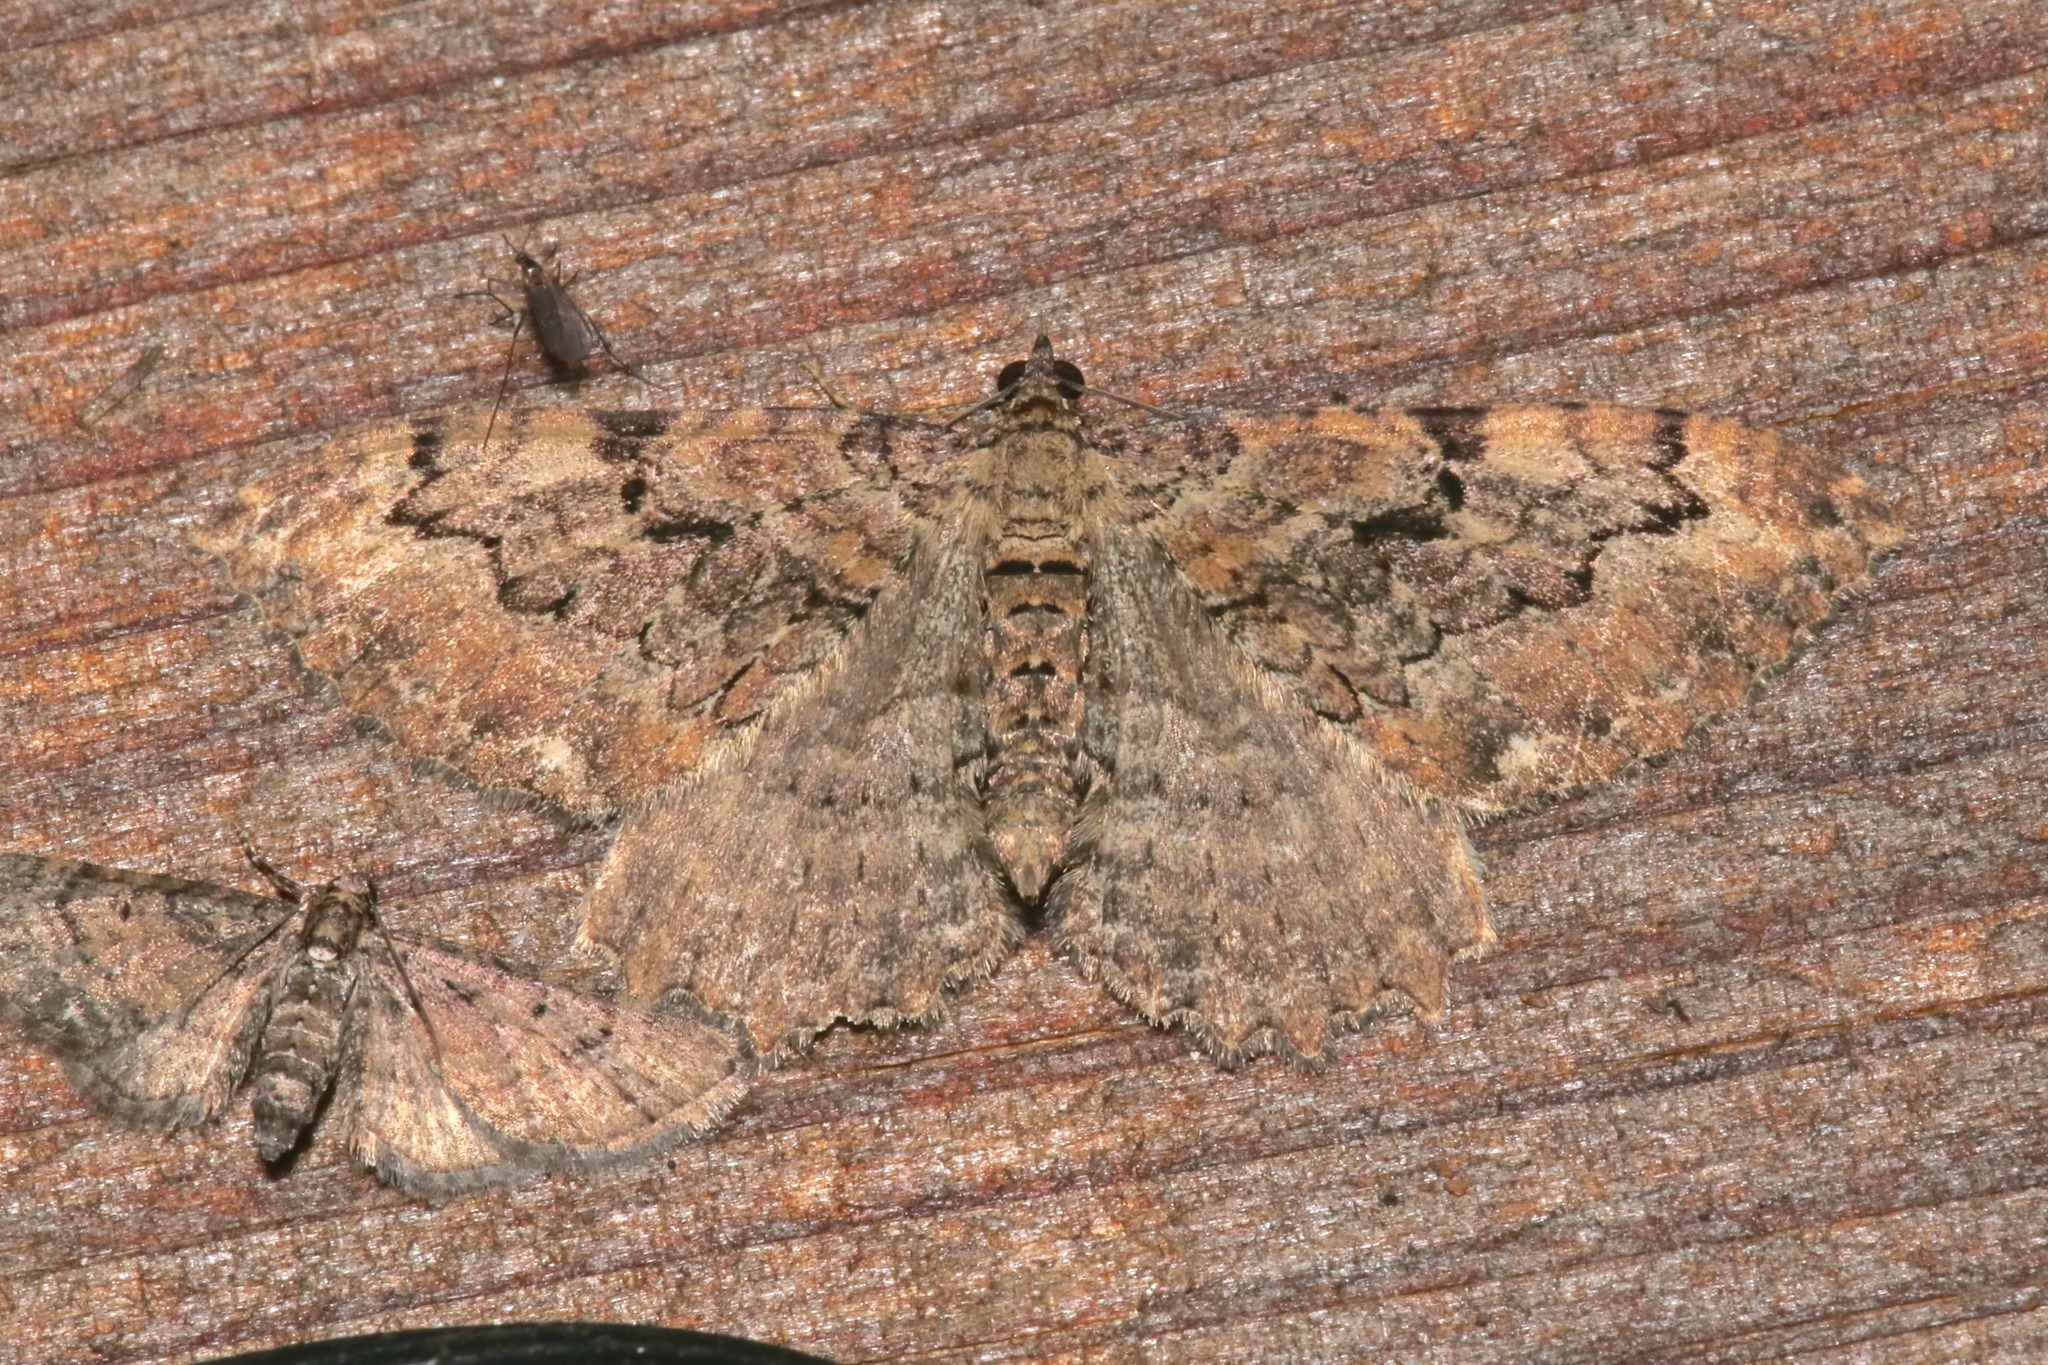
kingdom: Animalia
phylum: Arthropoda
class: Insecta
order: Lepidoptera
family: Geometridae
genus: Rheumaptera
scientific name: Rheumaptera
